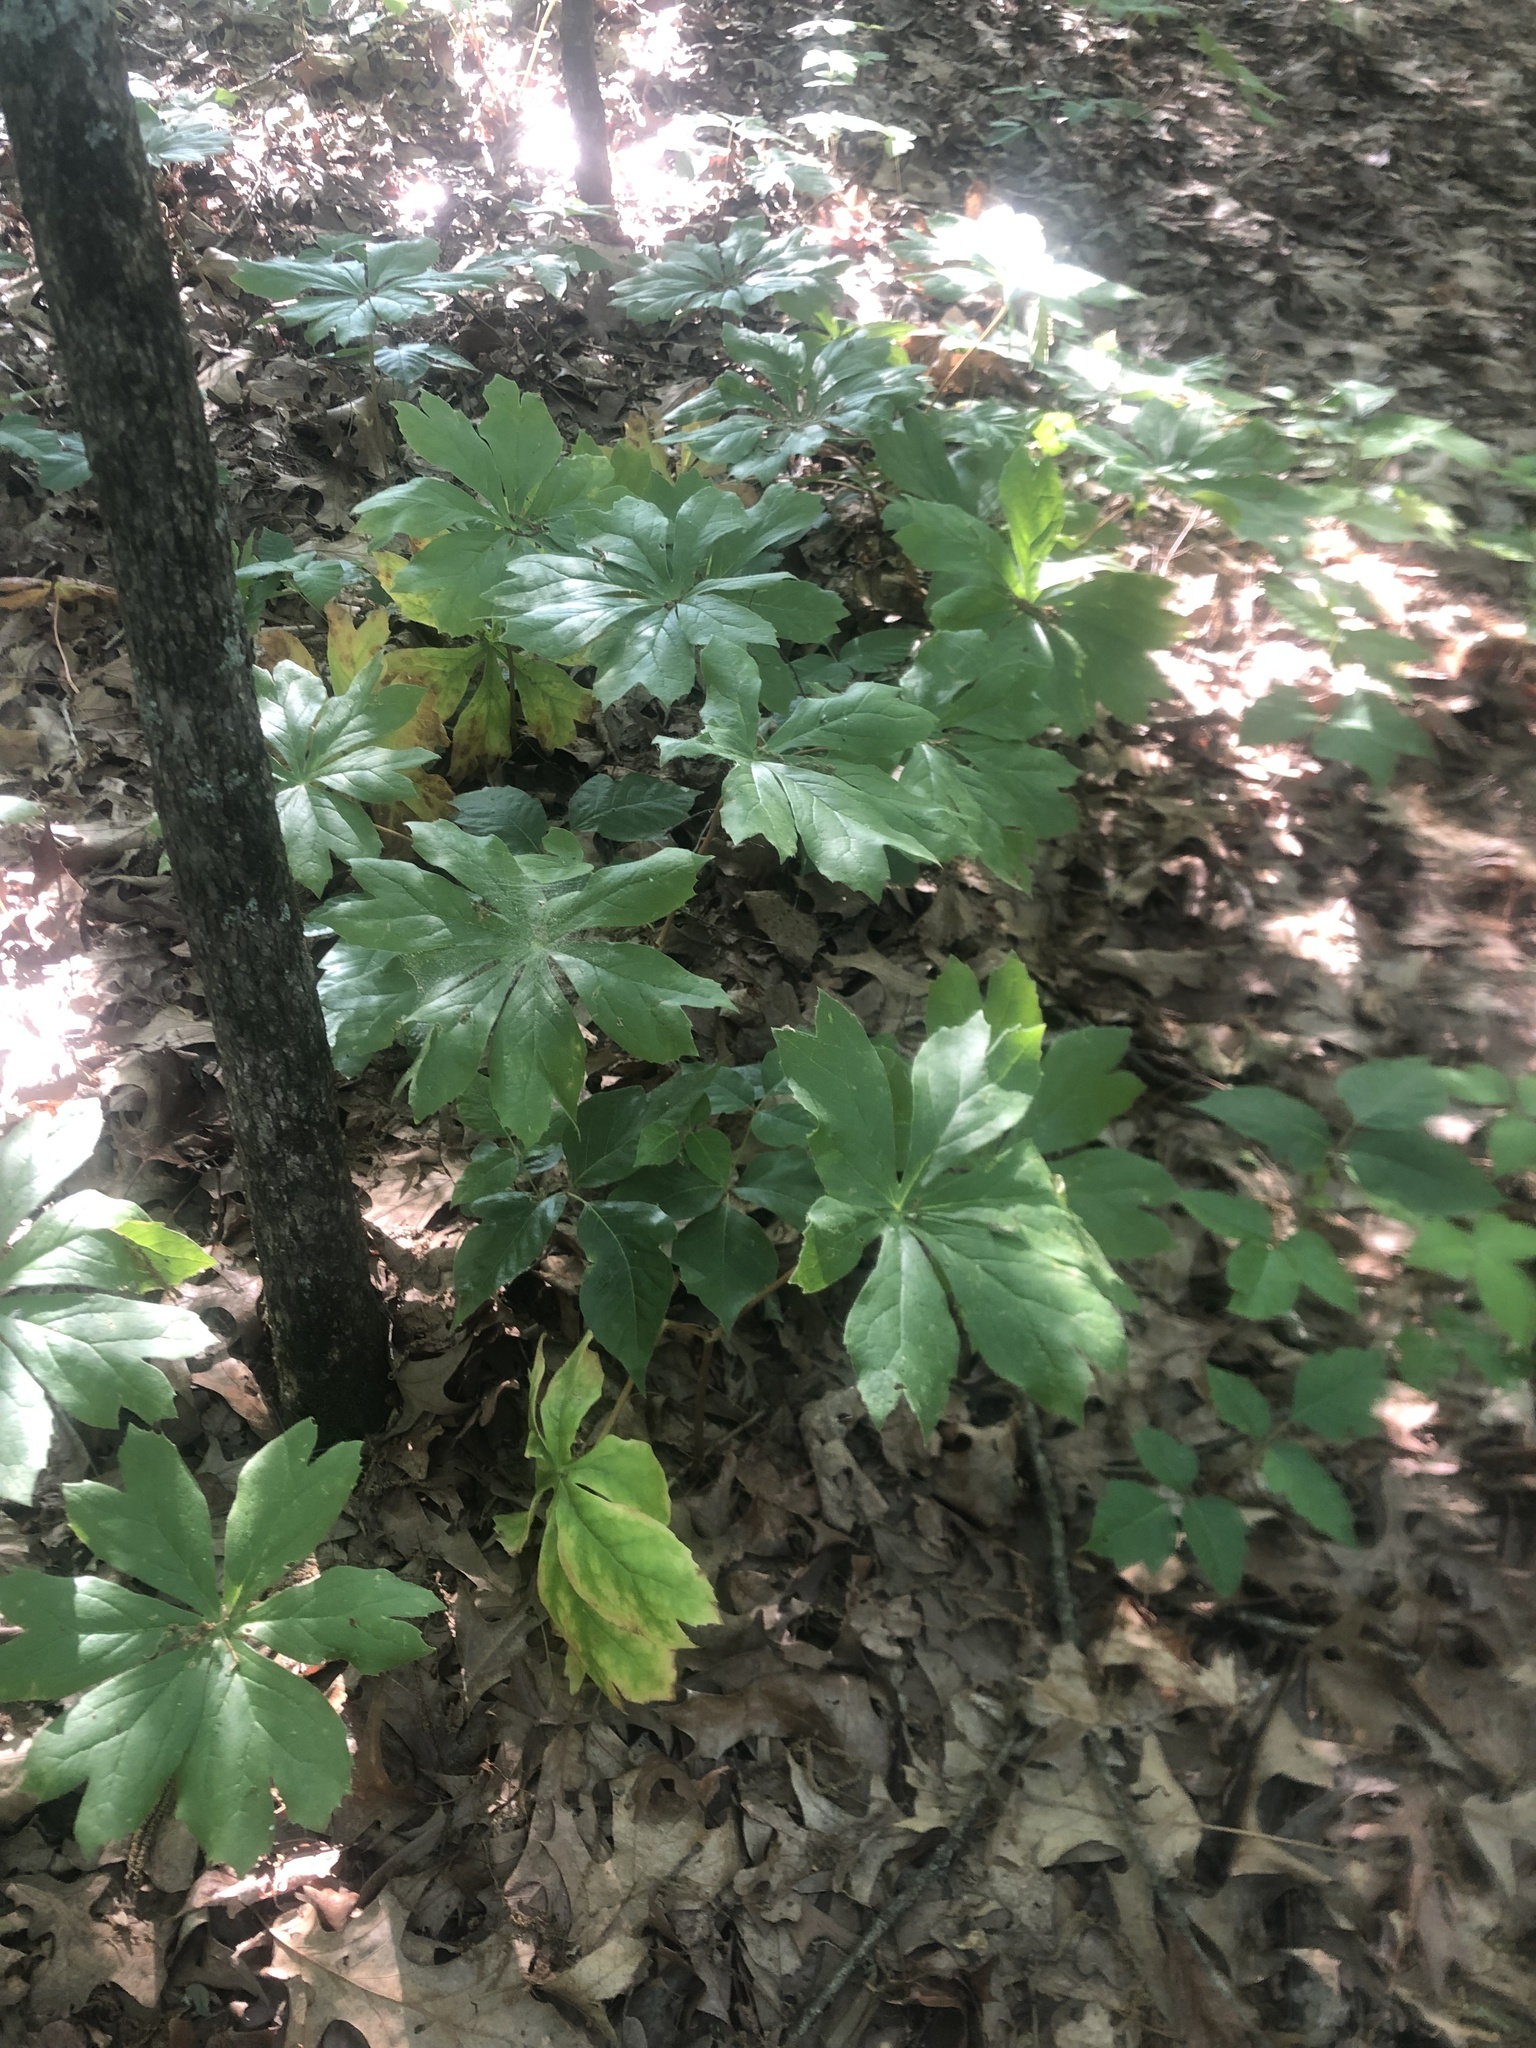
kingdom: Plantae
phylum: Tracheophyta
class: Magnoliopsida
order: Ranunculales
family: Berberidaceae
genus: Podophyllum
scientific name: Podophyllum peltatum
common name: Wild mandrake
